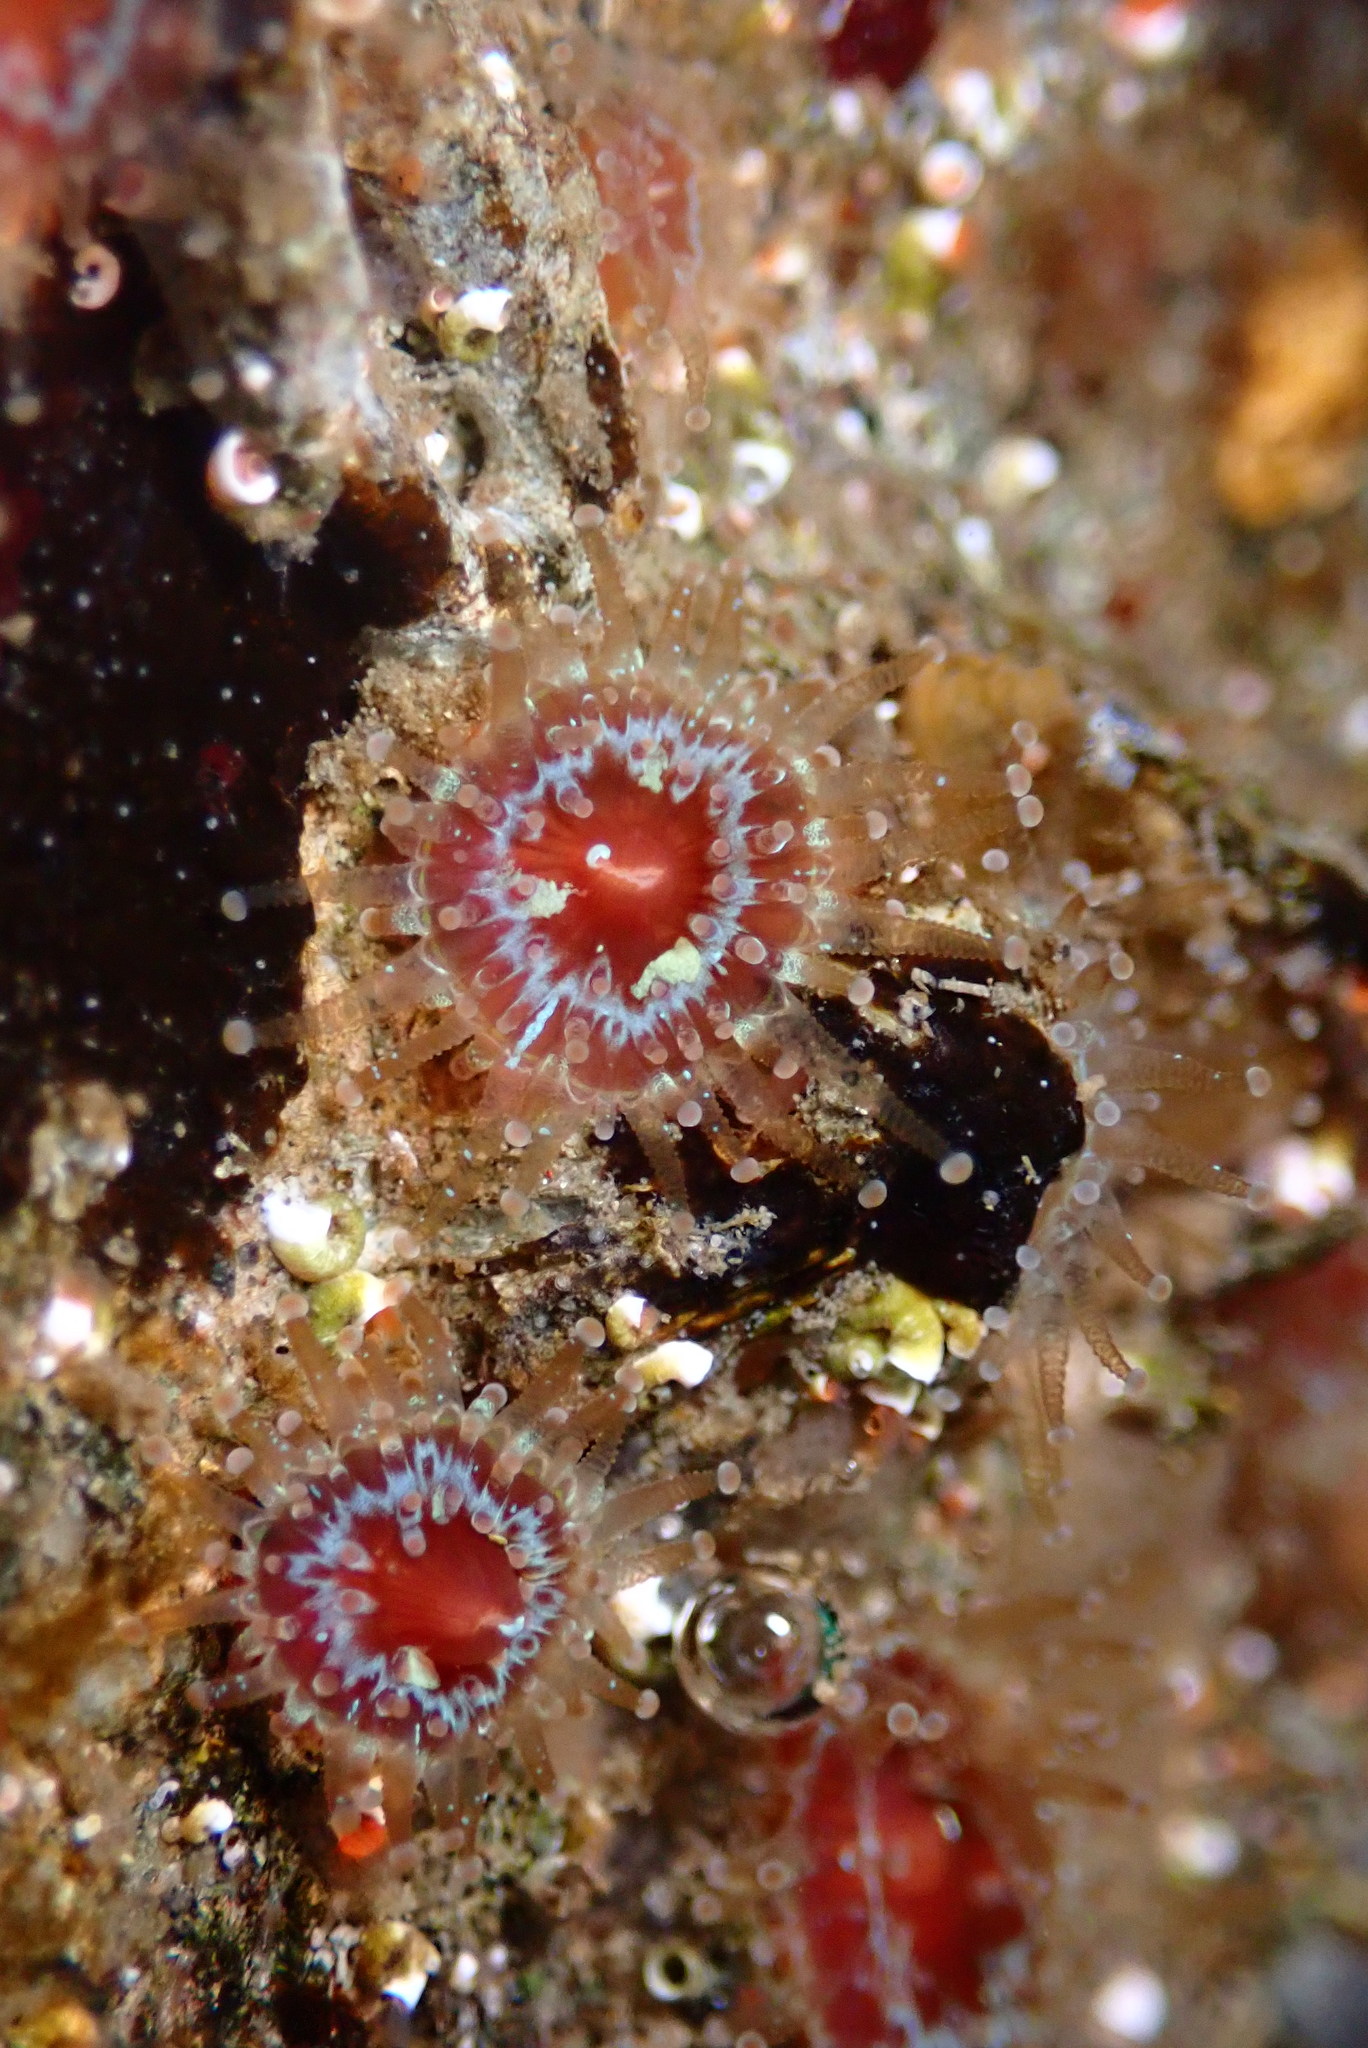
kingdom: Animalia
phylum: Cnidaria
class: Anthozoa
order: Corallimorpharia
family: Corallimorphidae
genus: Corynactis
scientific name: Corynactis californica
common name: Strawberry corallimorpharian
